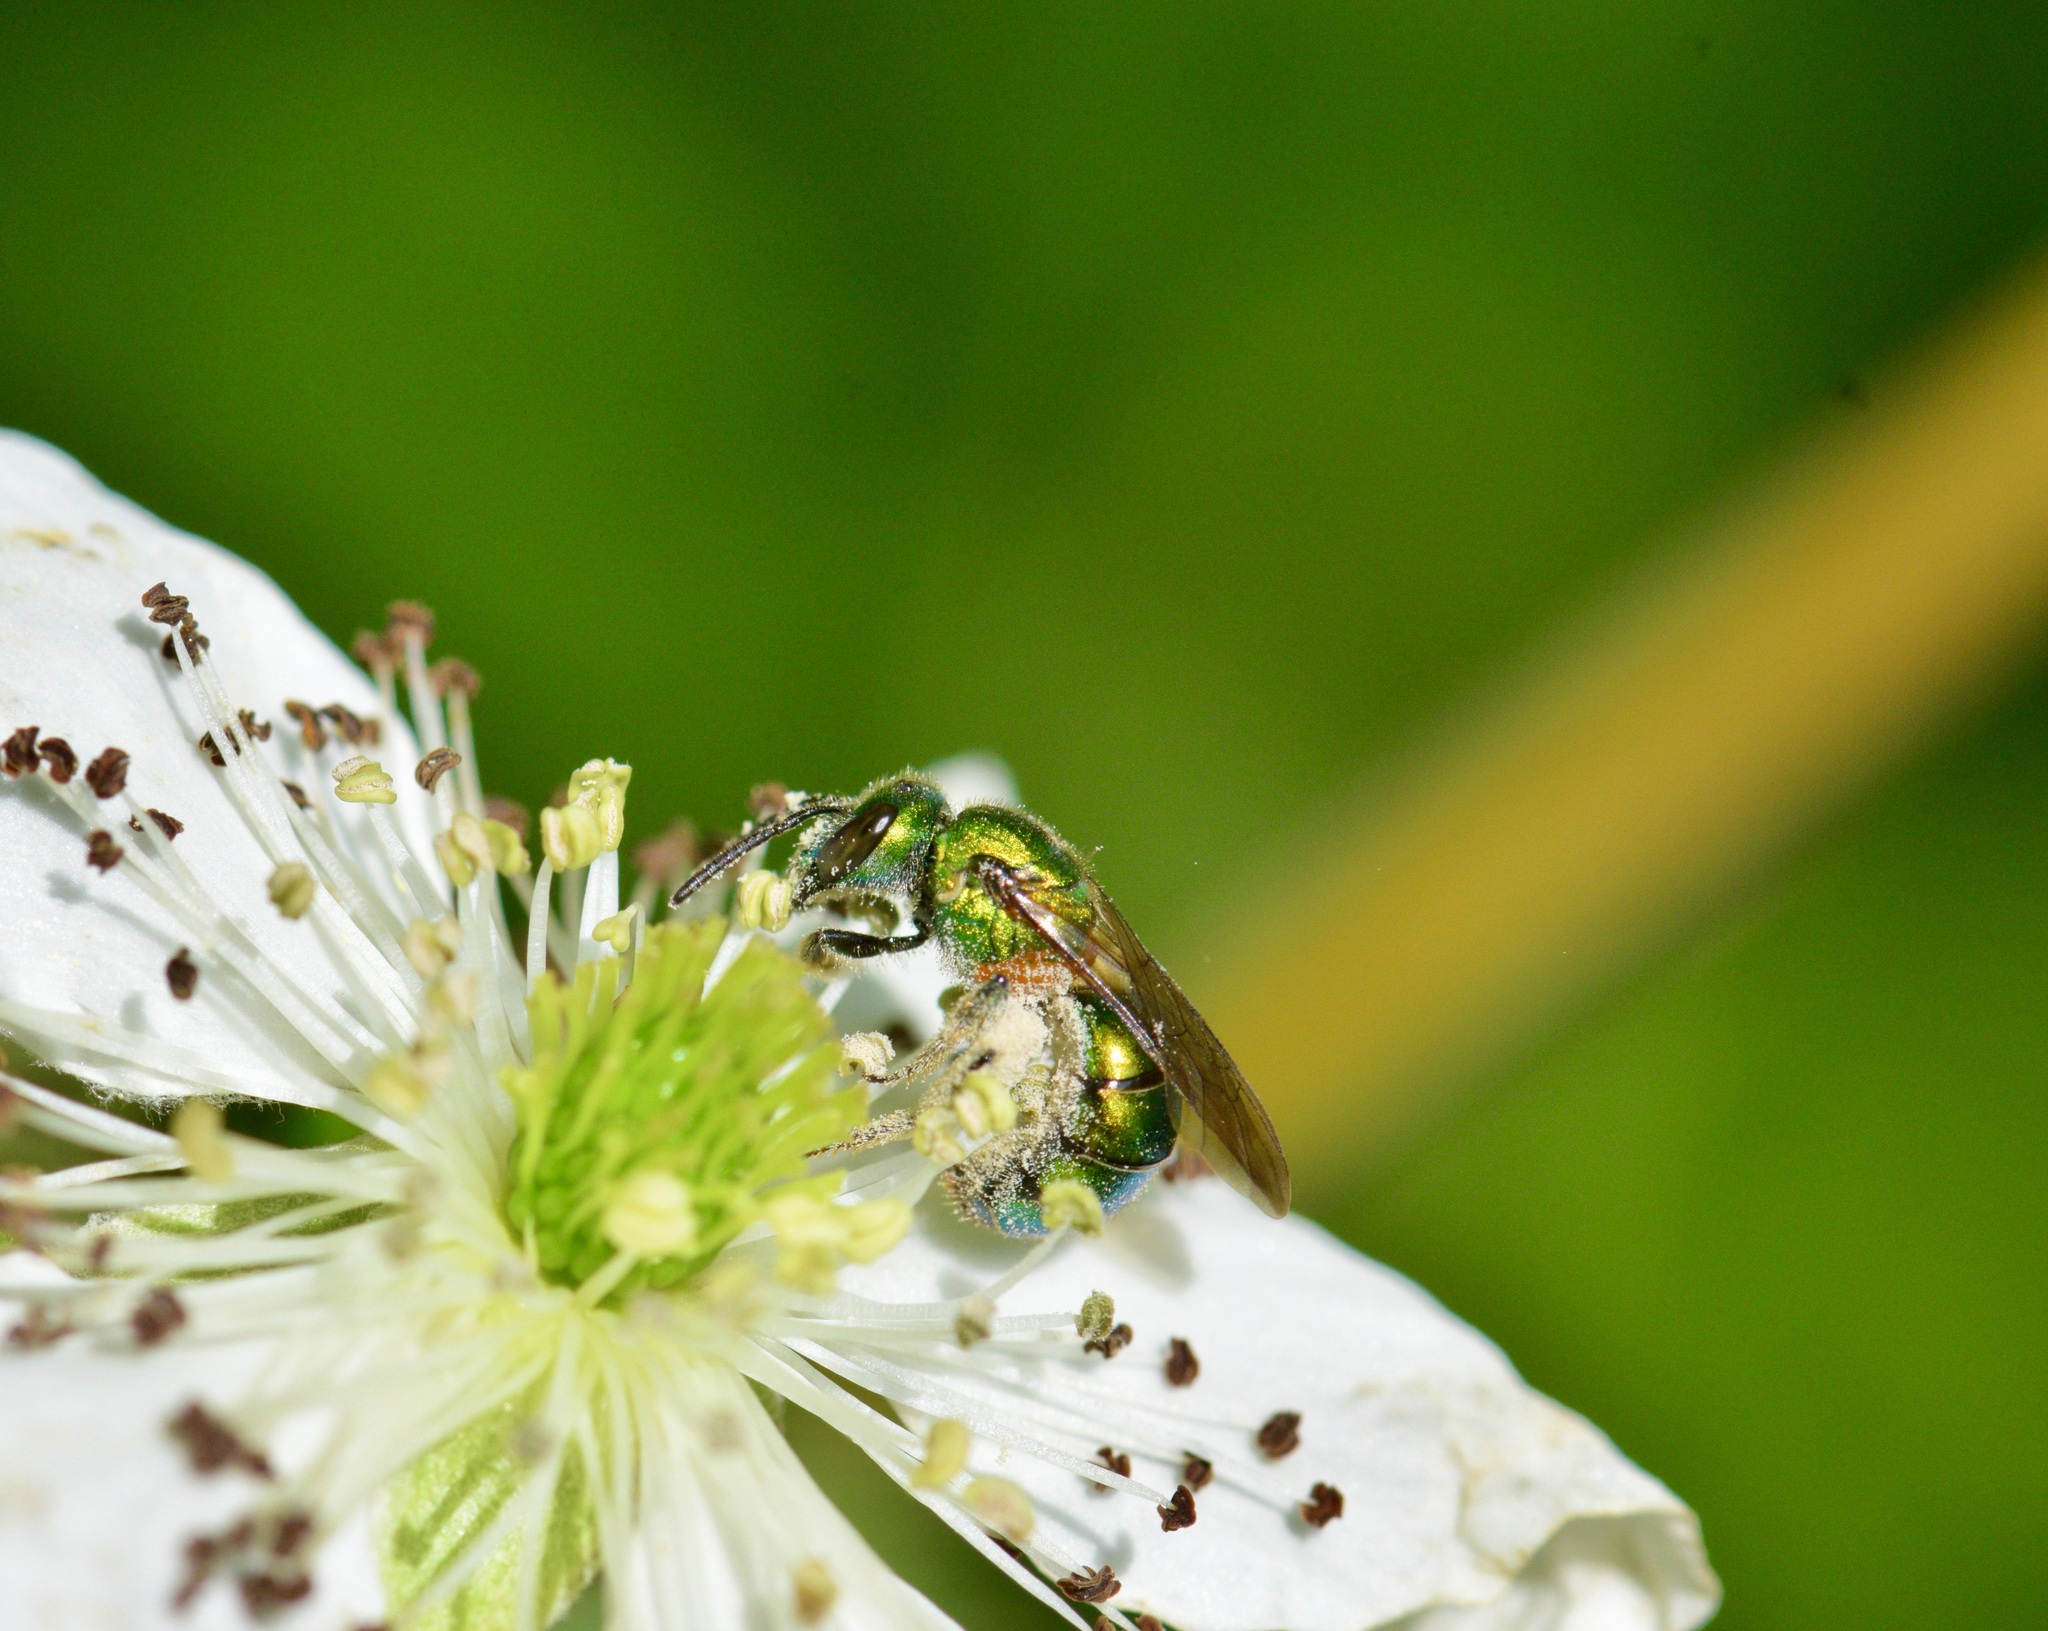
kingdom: Animalia
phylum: Arthropoda
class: Insecta
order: Hymenoptera
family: Halictidae
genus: Augochlora
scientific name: Augochlora pura
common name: Pure green sweat bee
